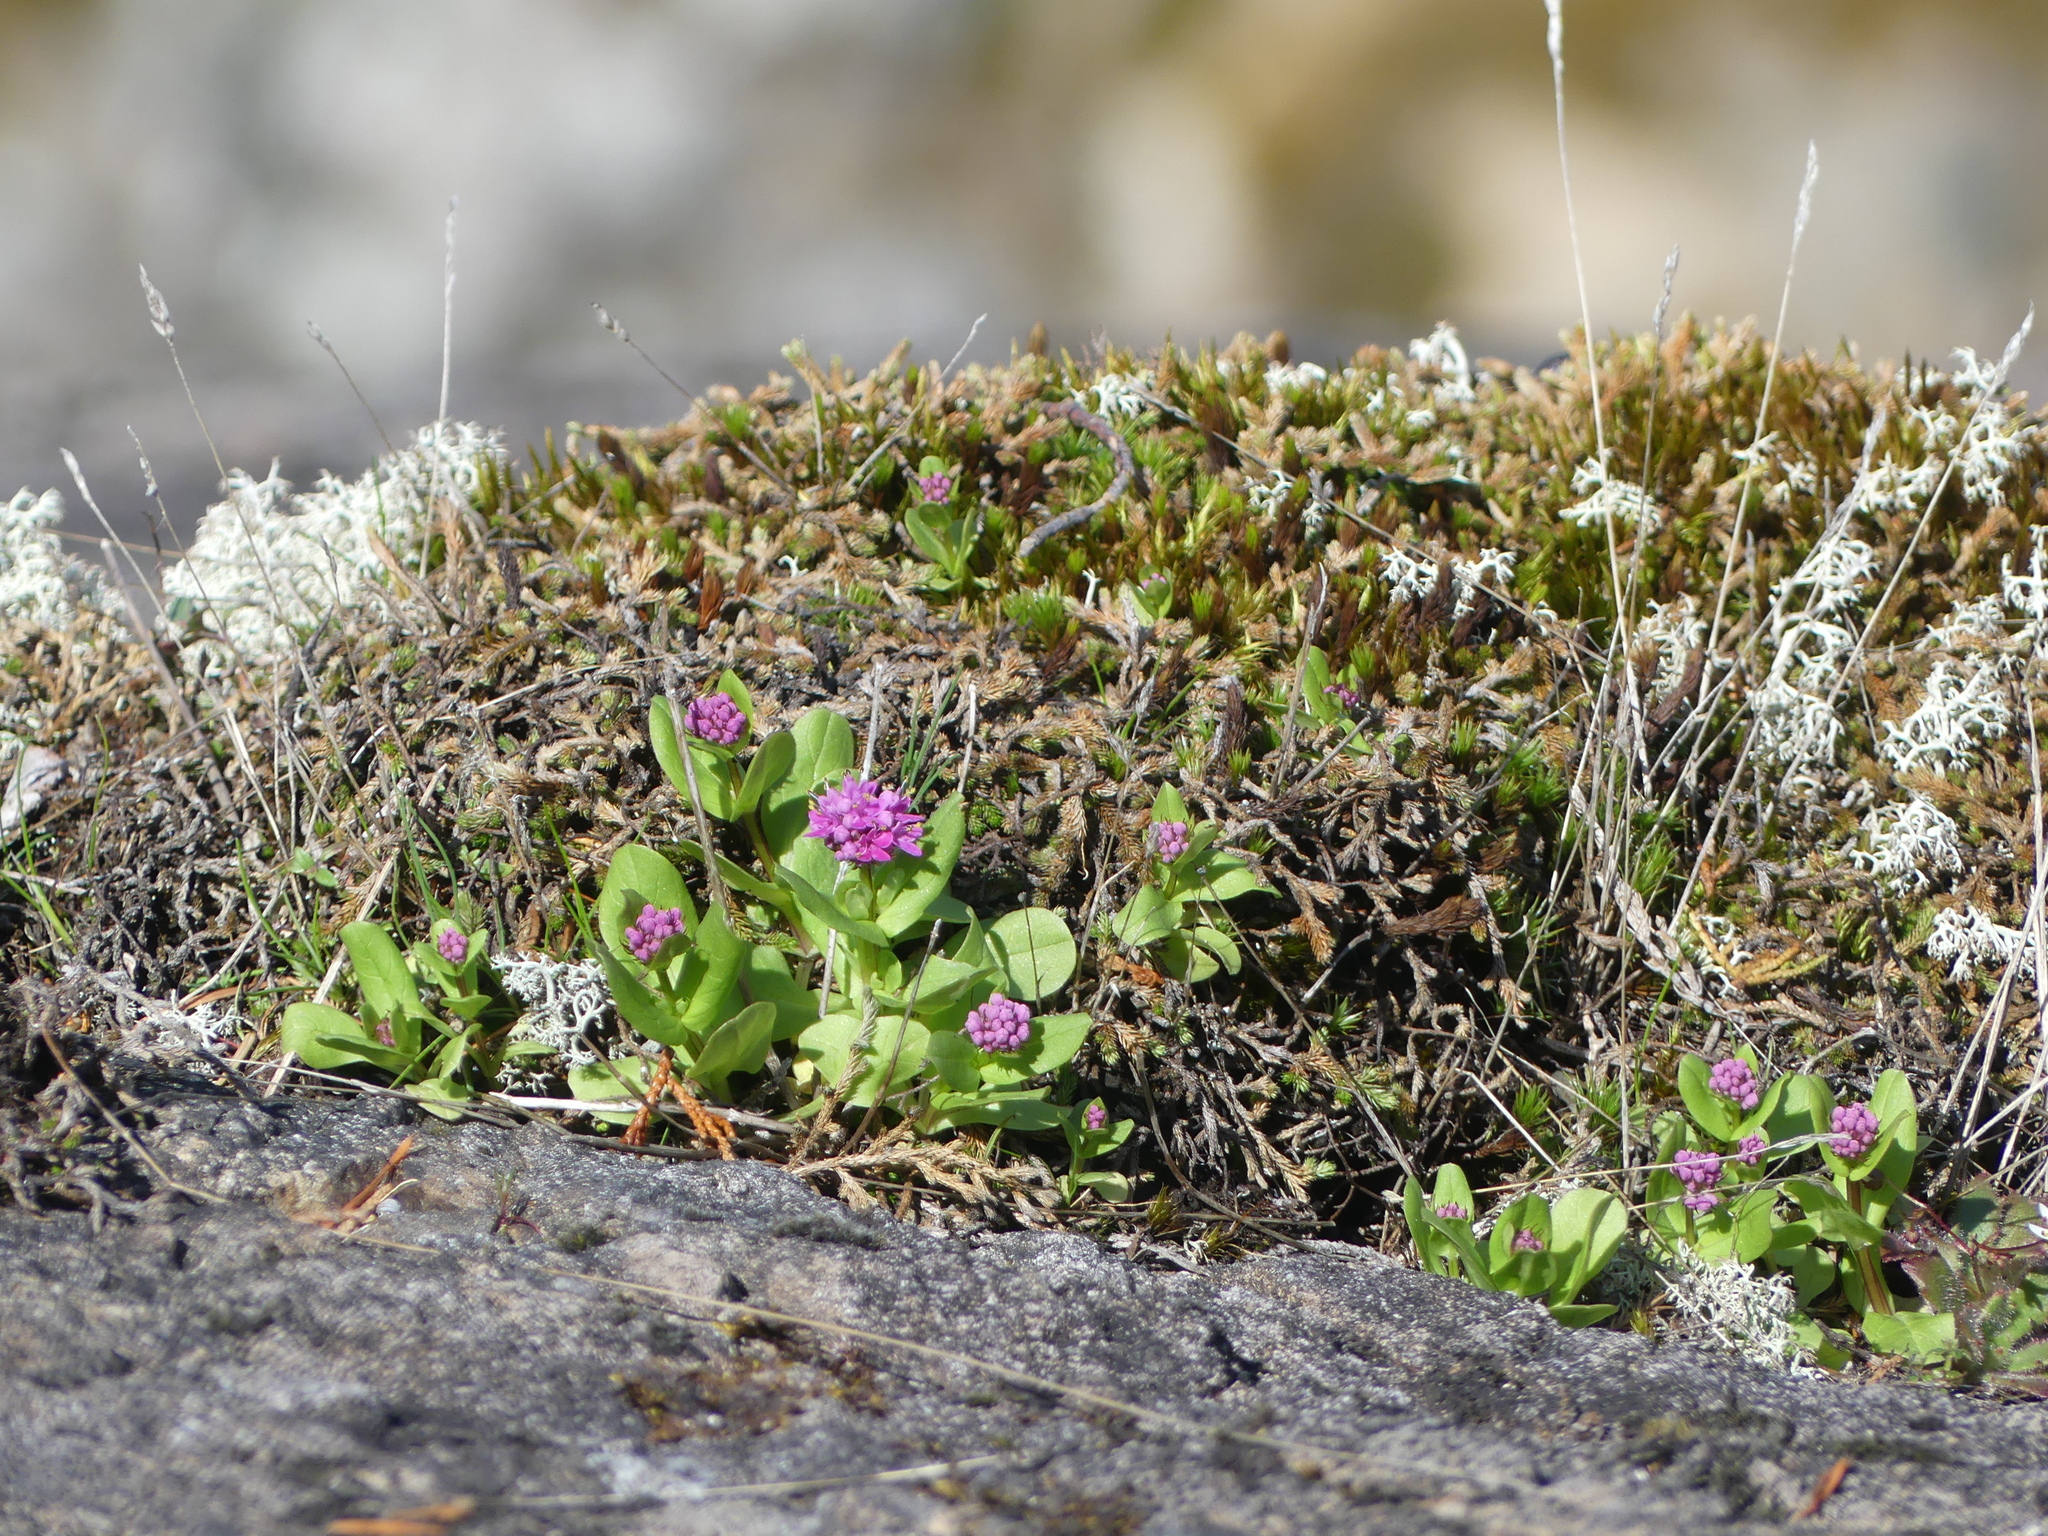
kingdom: Plantae
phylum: Tracheophyta
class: Magnoliopsida
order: Dipsacales
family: Caprifoliaceae
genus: Plectritis
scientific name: Plectritis congesta
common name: Pink plectritis
